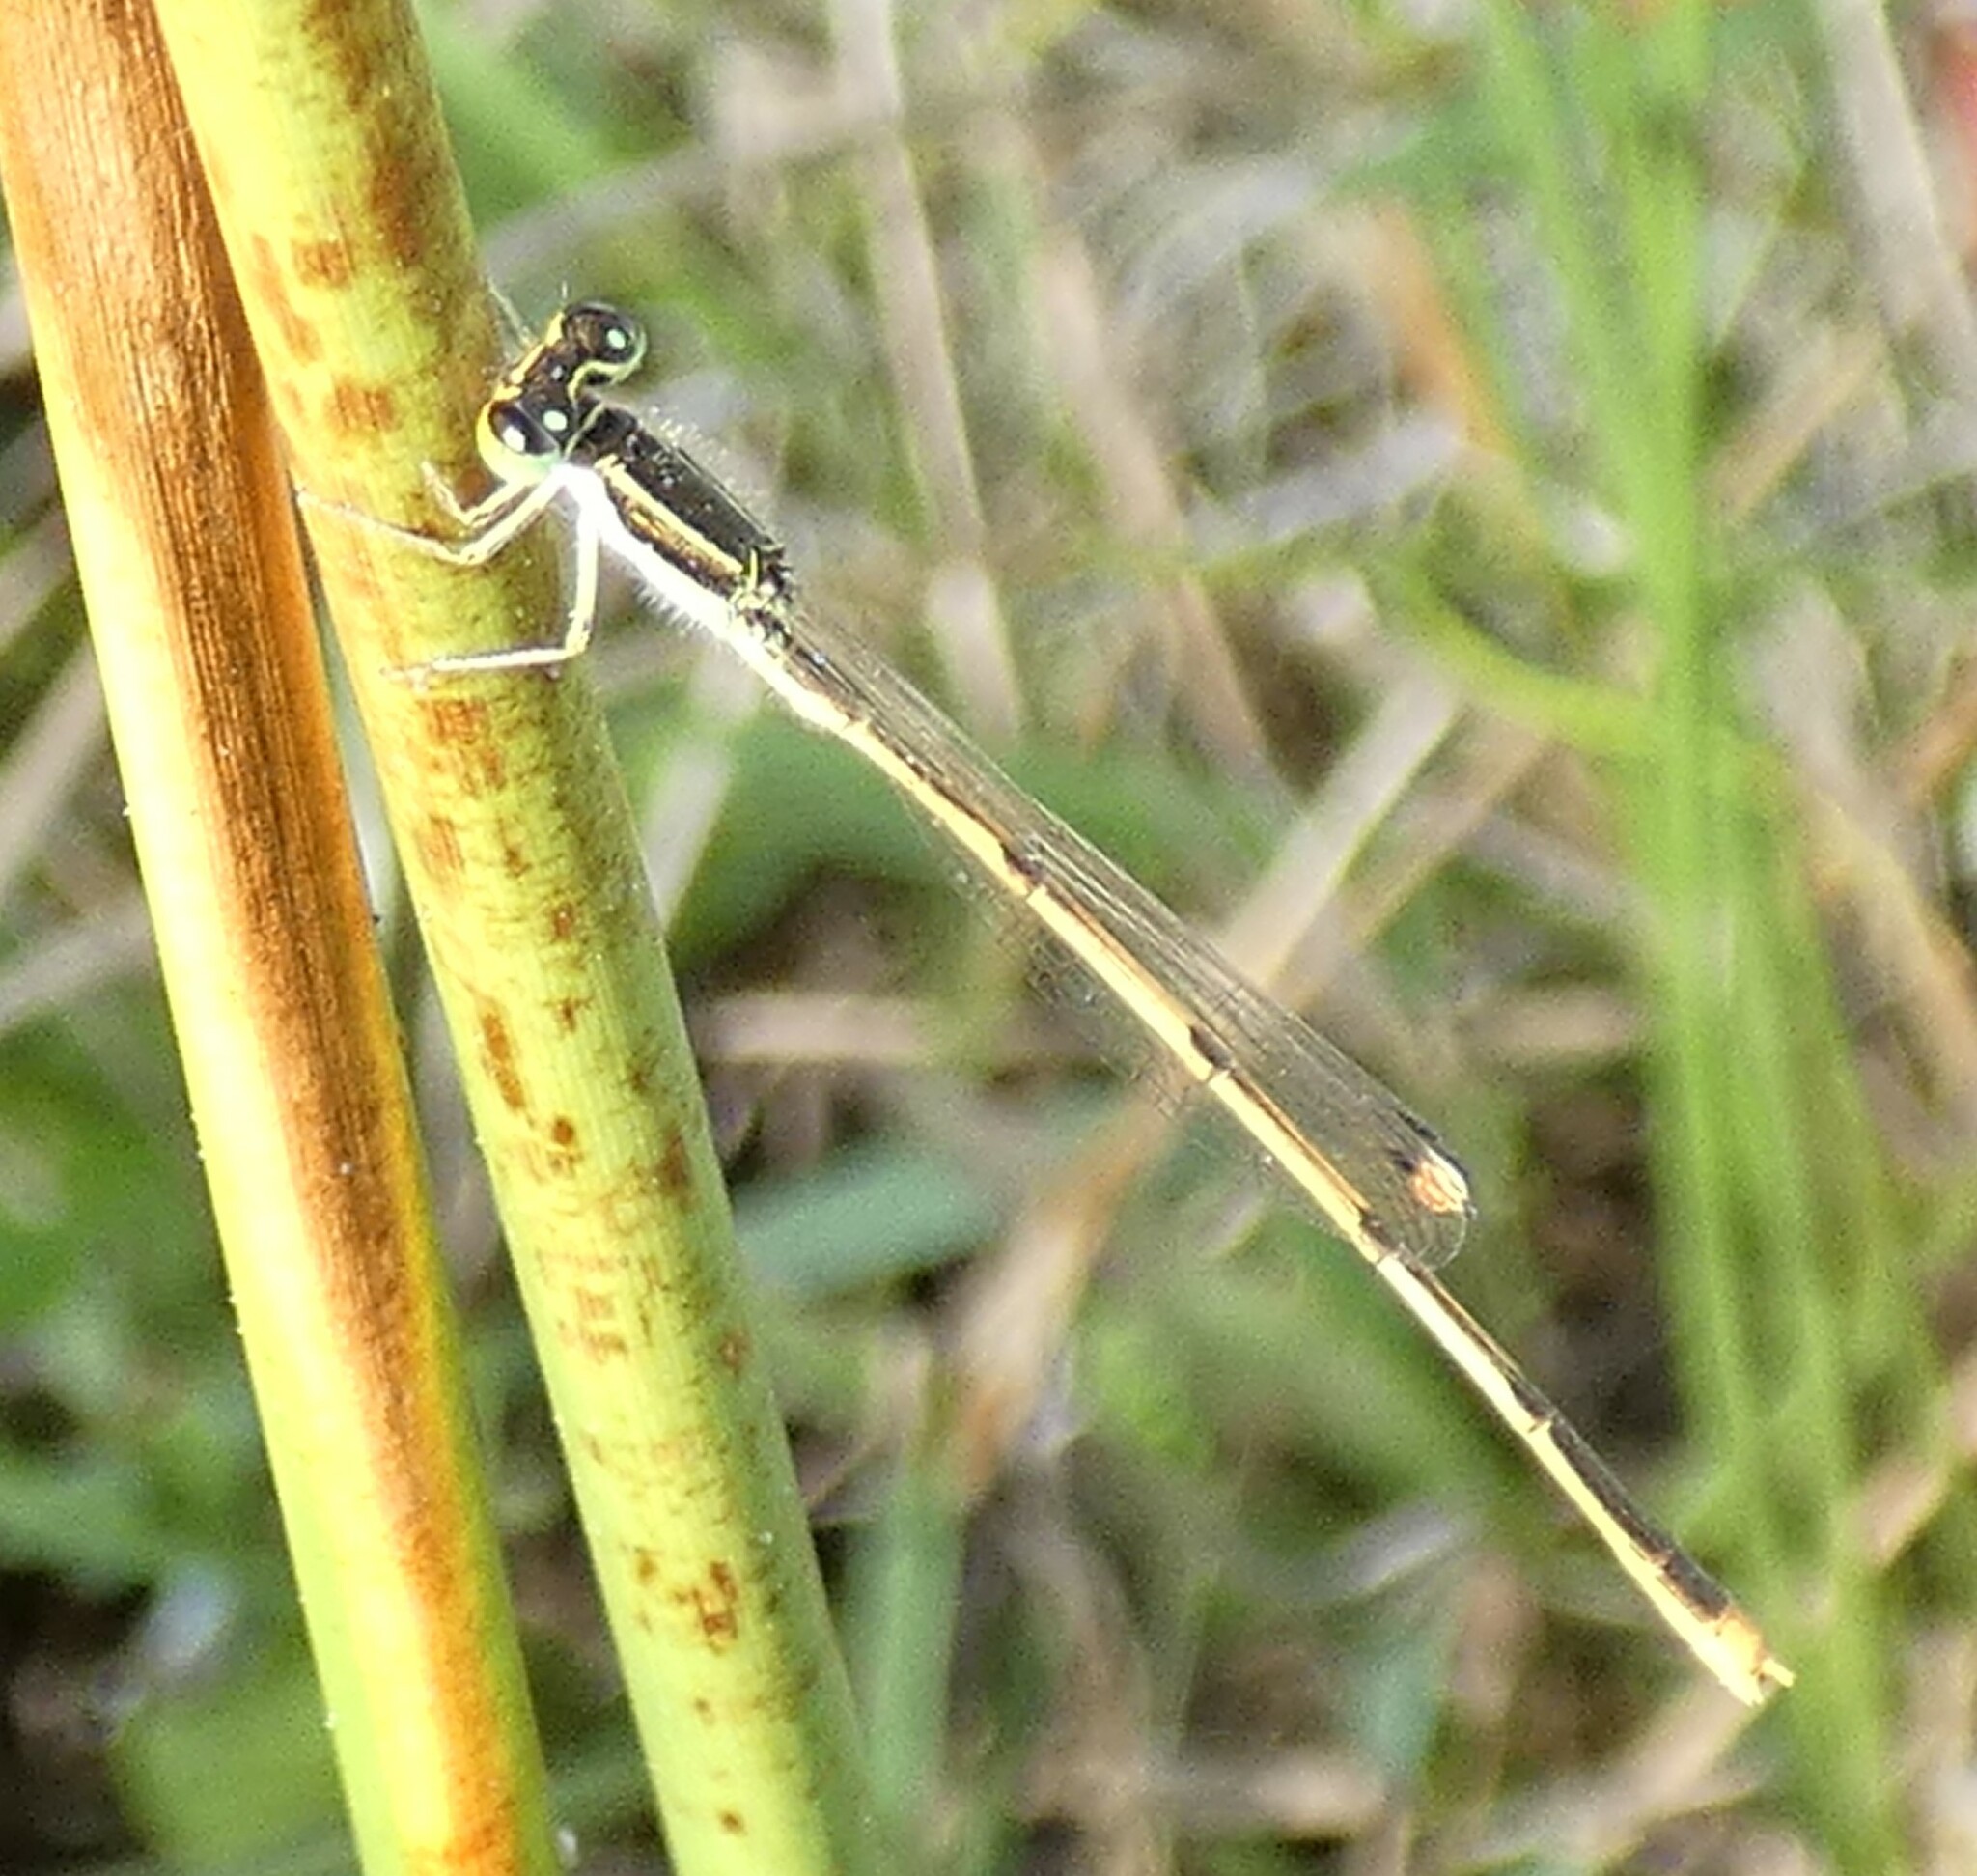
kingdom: Animalia
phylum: Arthropoda
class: Insecta
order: Odonata
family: Coenagrionidae
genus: Ischnura
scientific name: Ischnura hastata
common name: Citrine forktail
